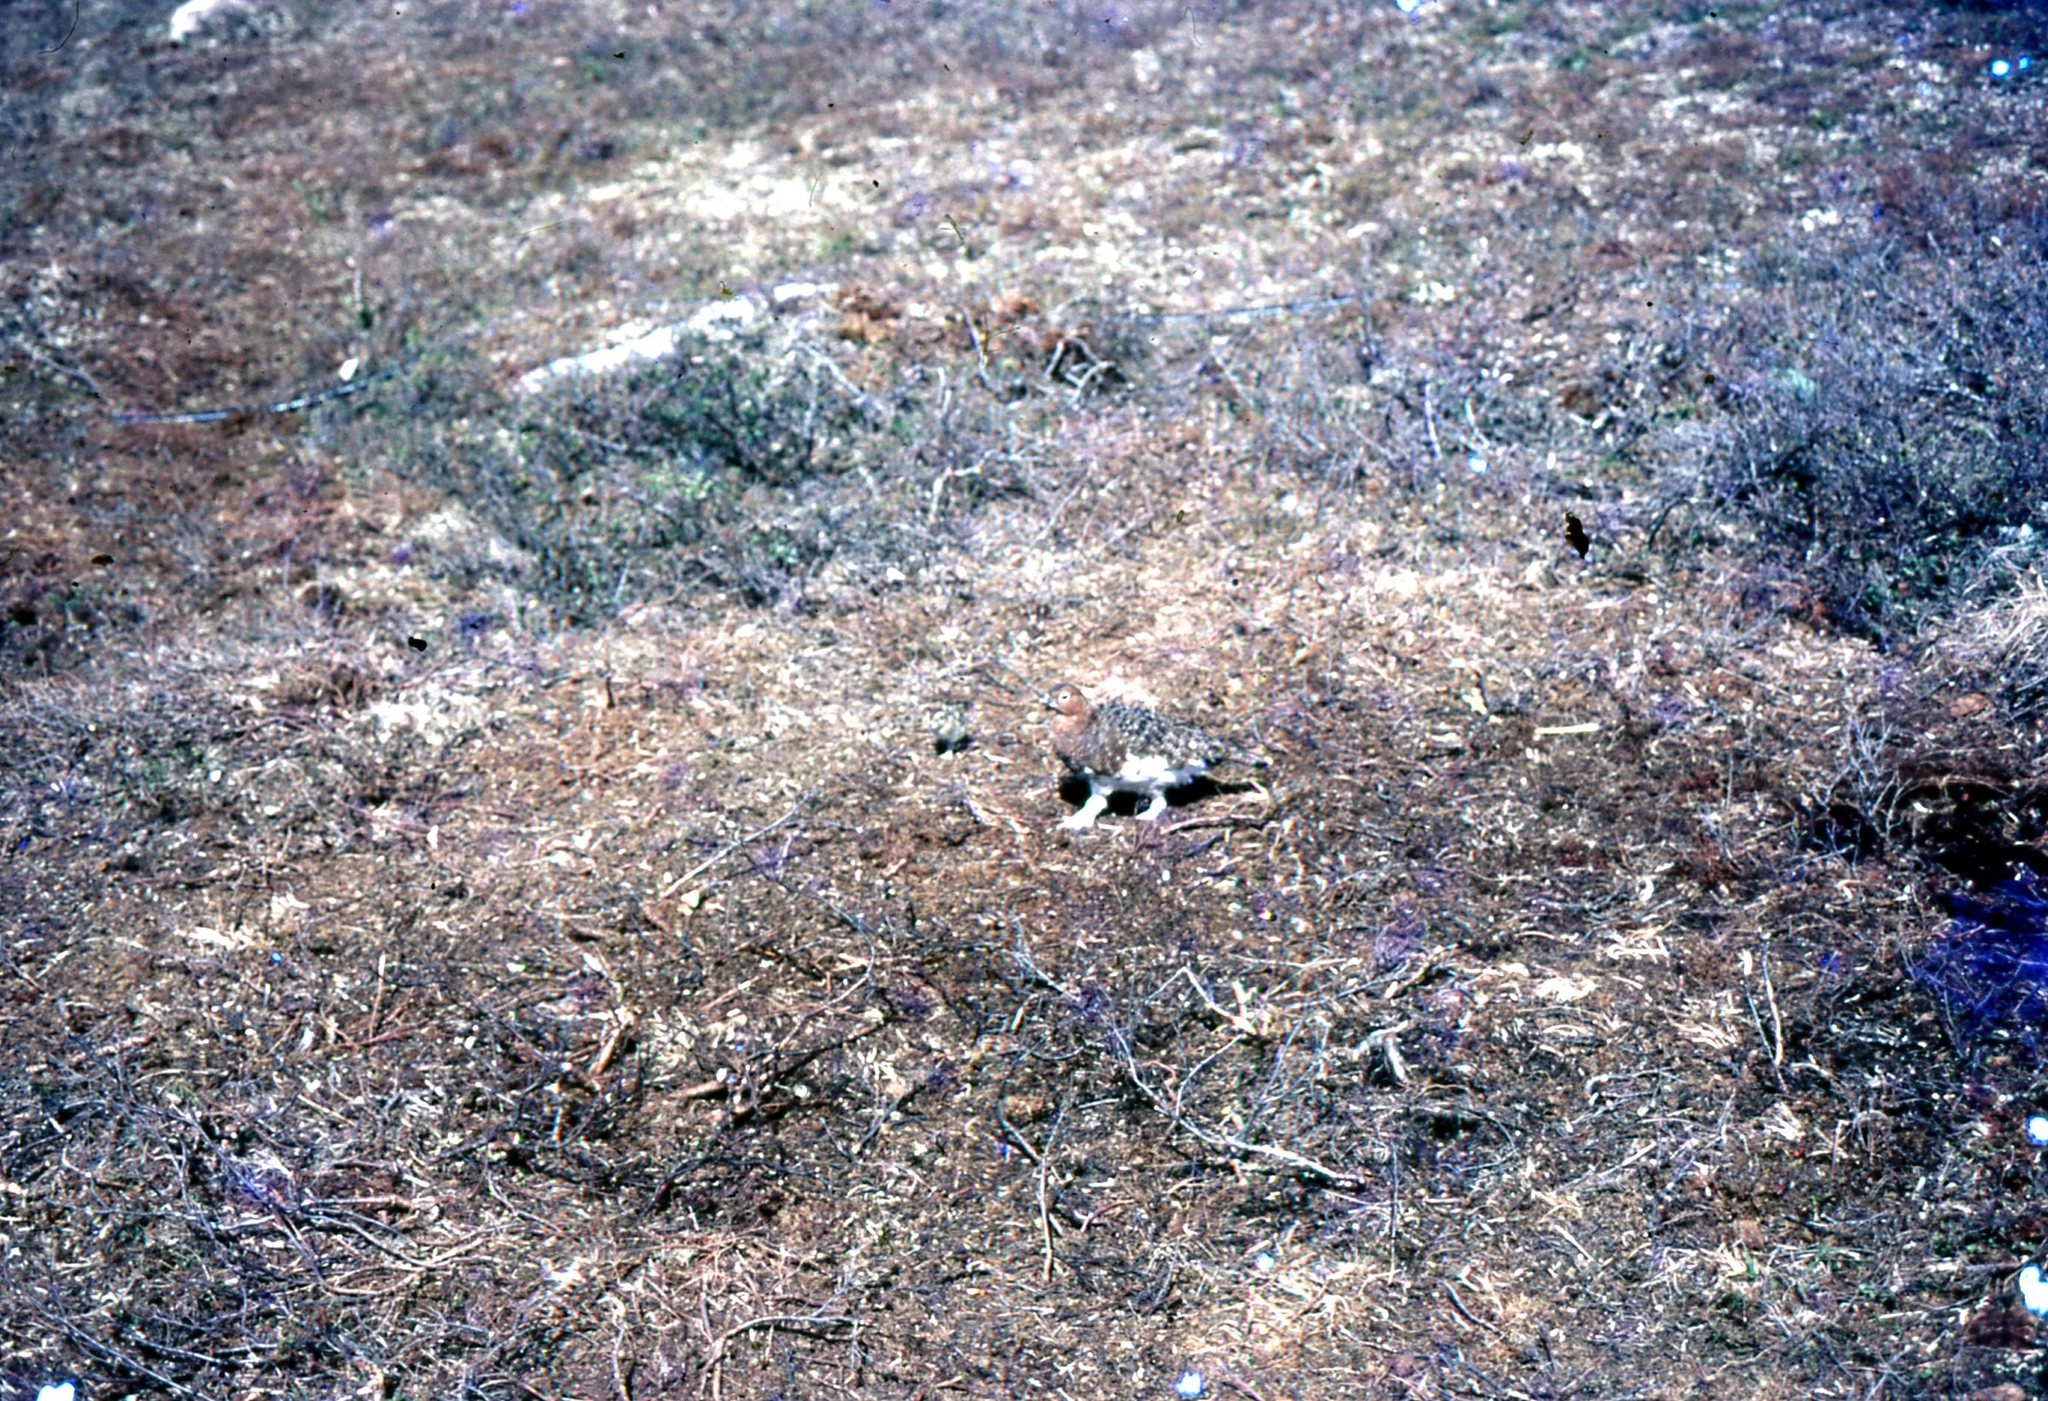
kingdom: Animalia
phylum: Chordata
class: Aves
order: Galliformes
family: Phasianidae
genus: Lagopus
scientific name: Lagopus muta
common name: Rock ptarmigan
